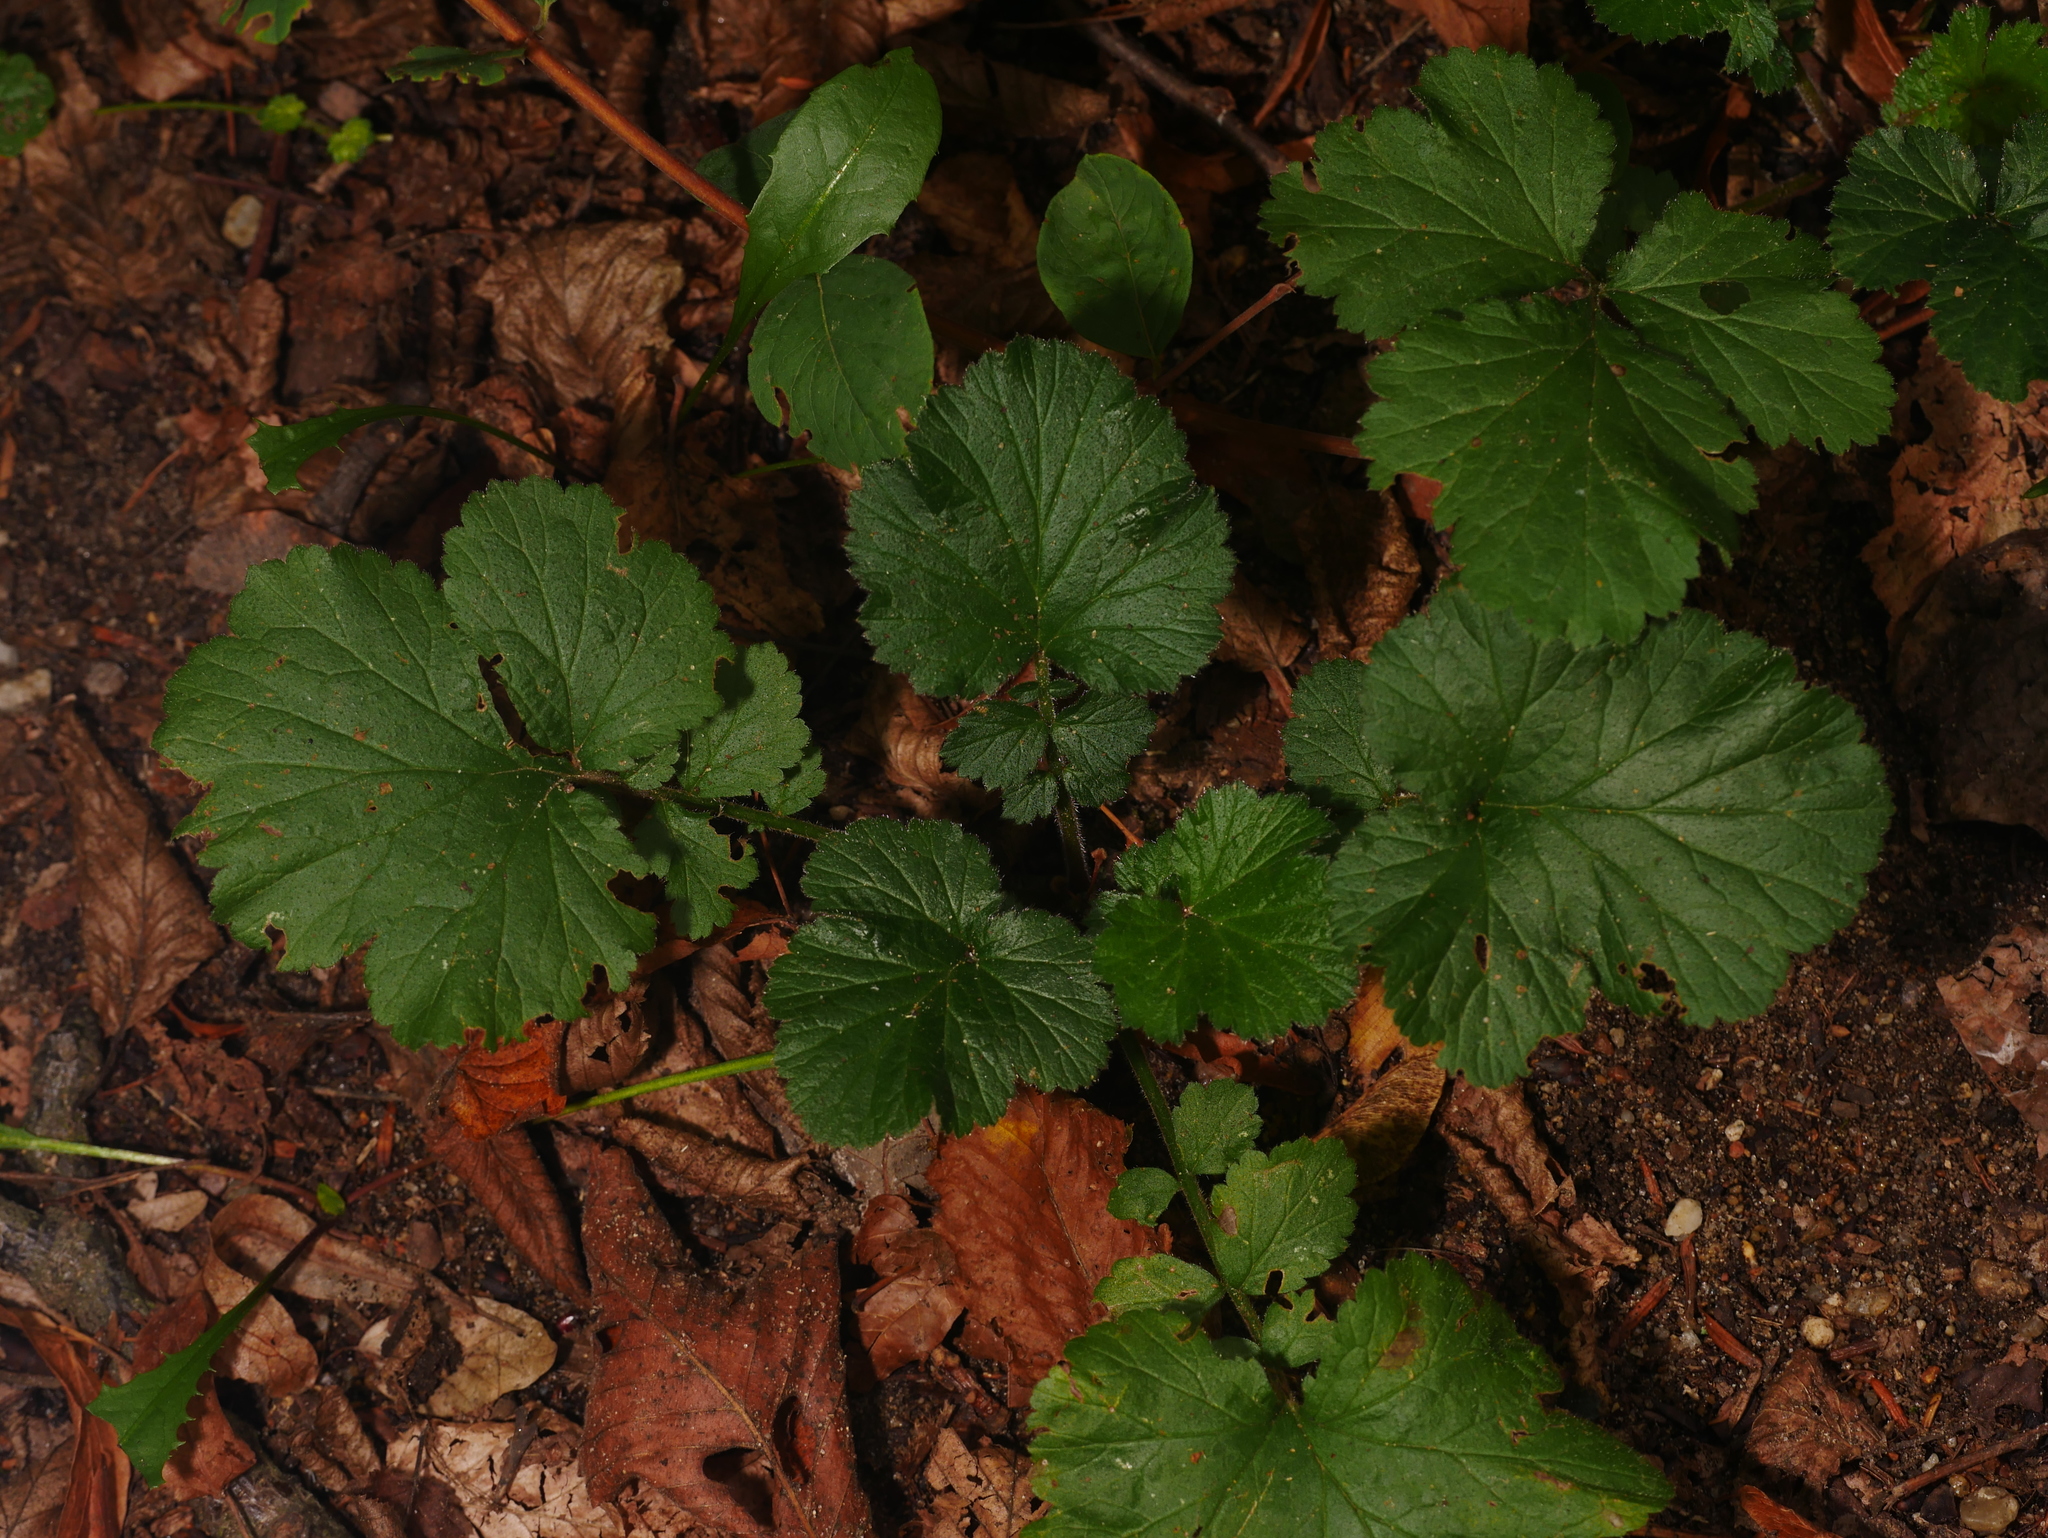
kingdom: Plantae
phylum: Tracheophyta
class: Magnoliopsida
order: Rosales
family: Rosaceae
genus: Geum
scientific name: Geum urbanum
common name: Wood avens
